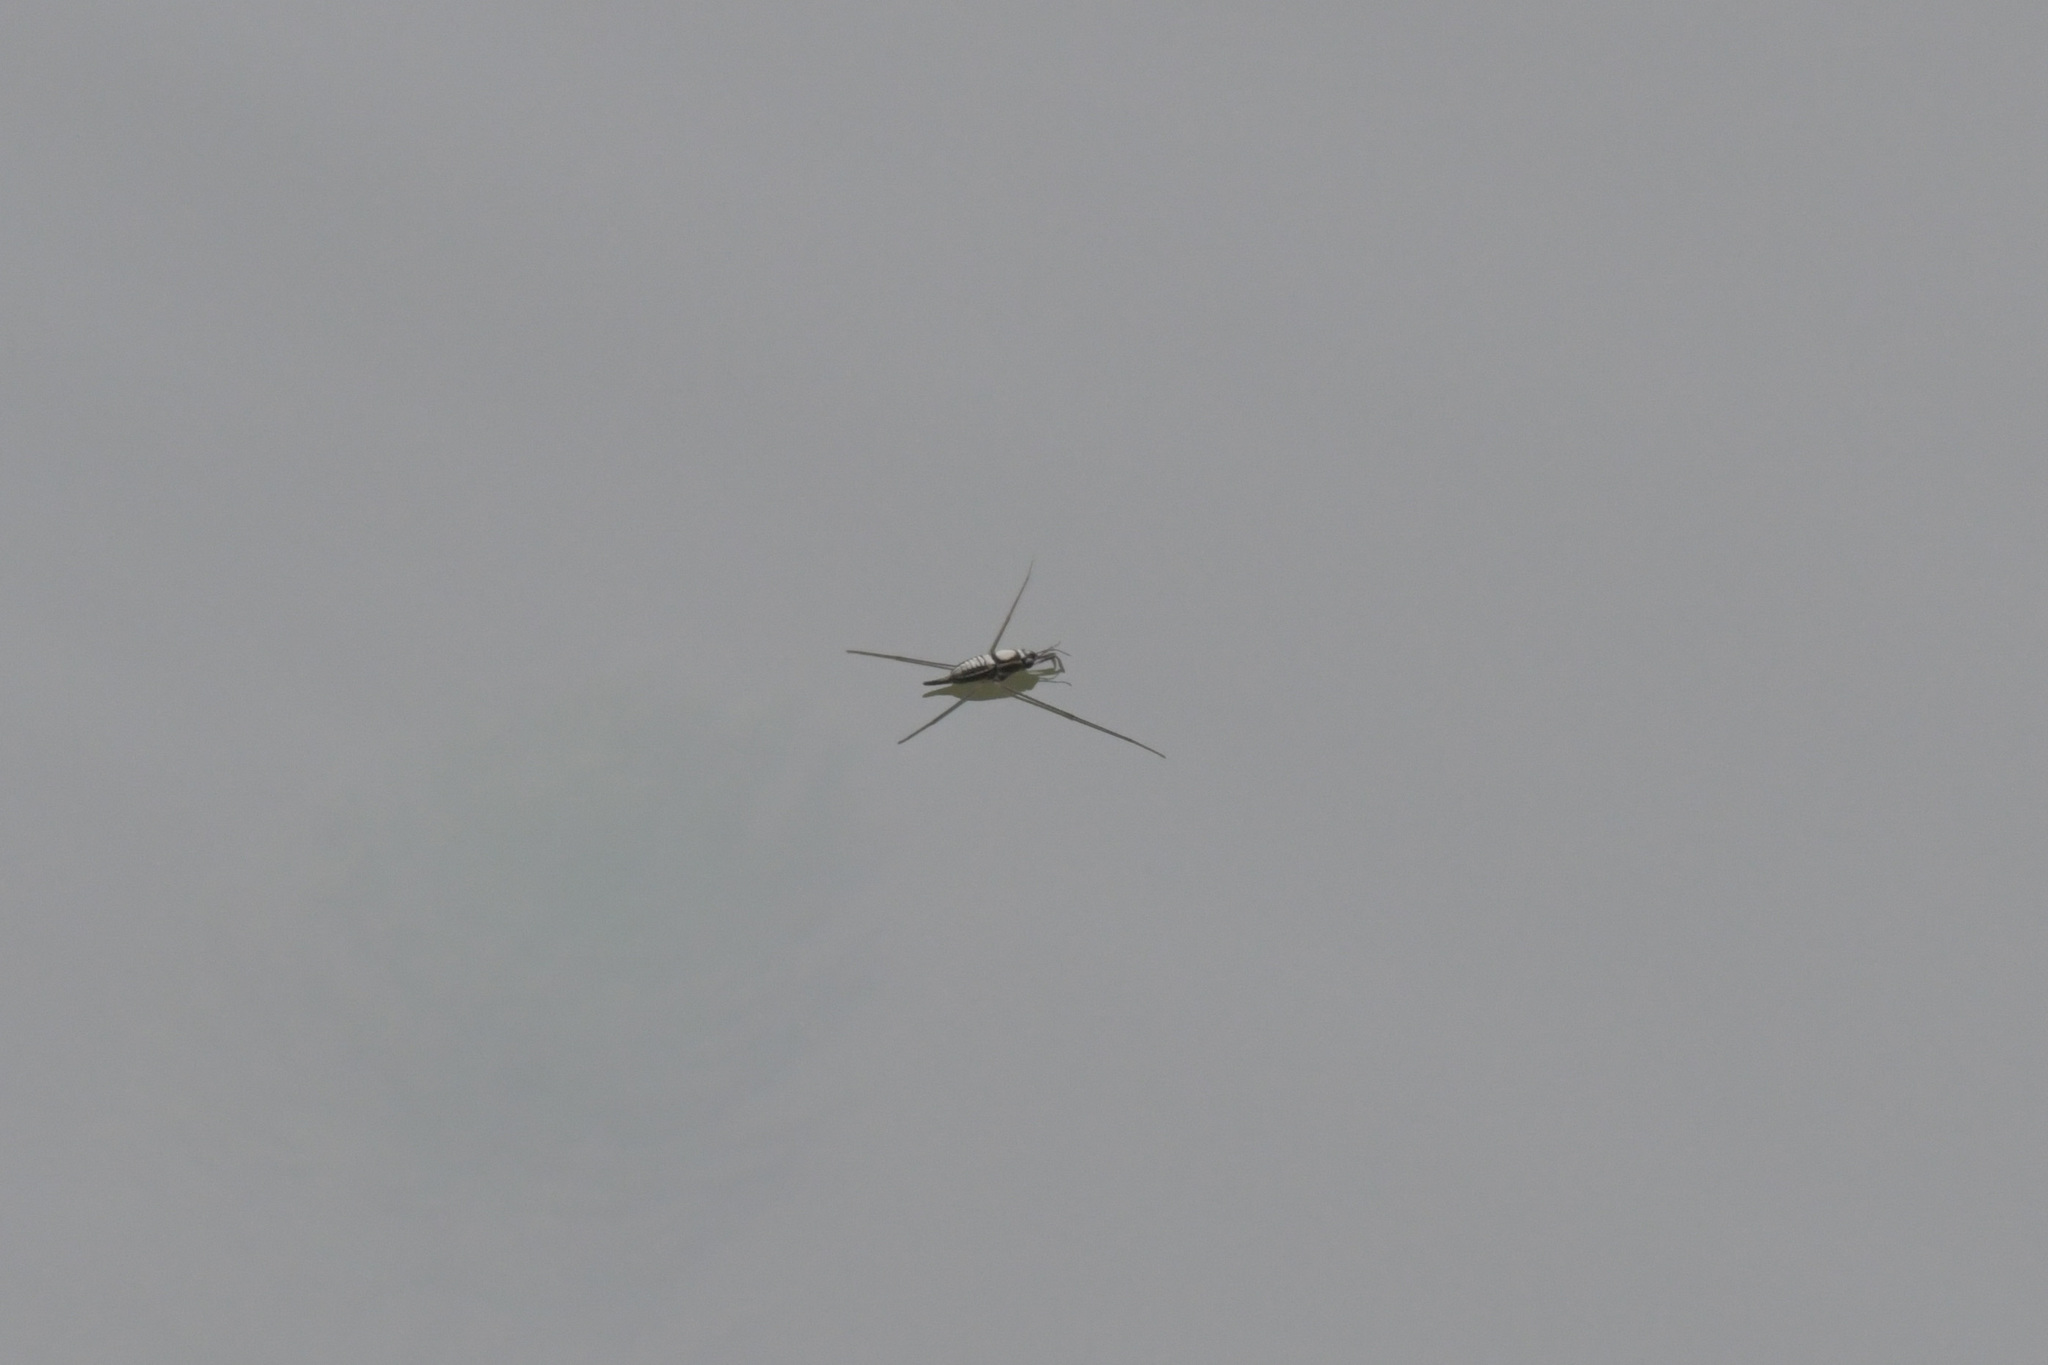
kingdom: Animalia
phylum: Arthropoda
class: Insecta
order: Hemiptera
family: Gerridae
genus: Rhagadotarsus
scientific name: Rhagadotarsus kraepelini
